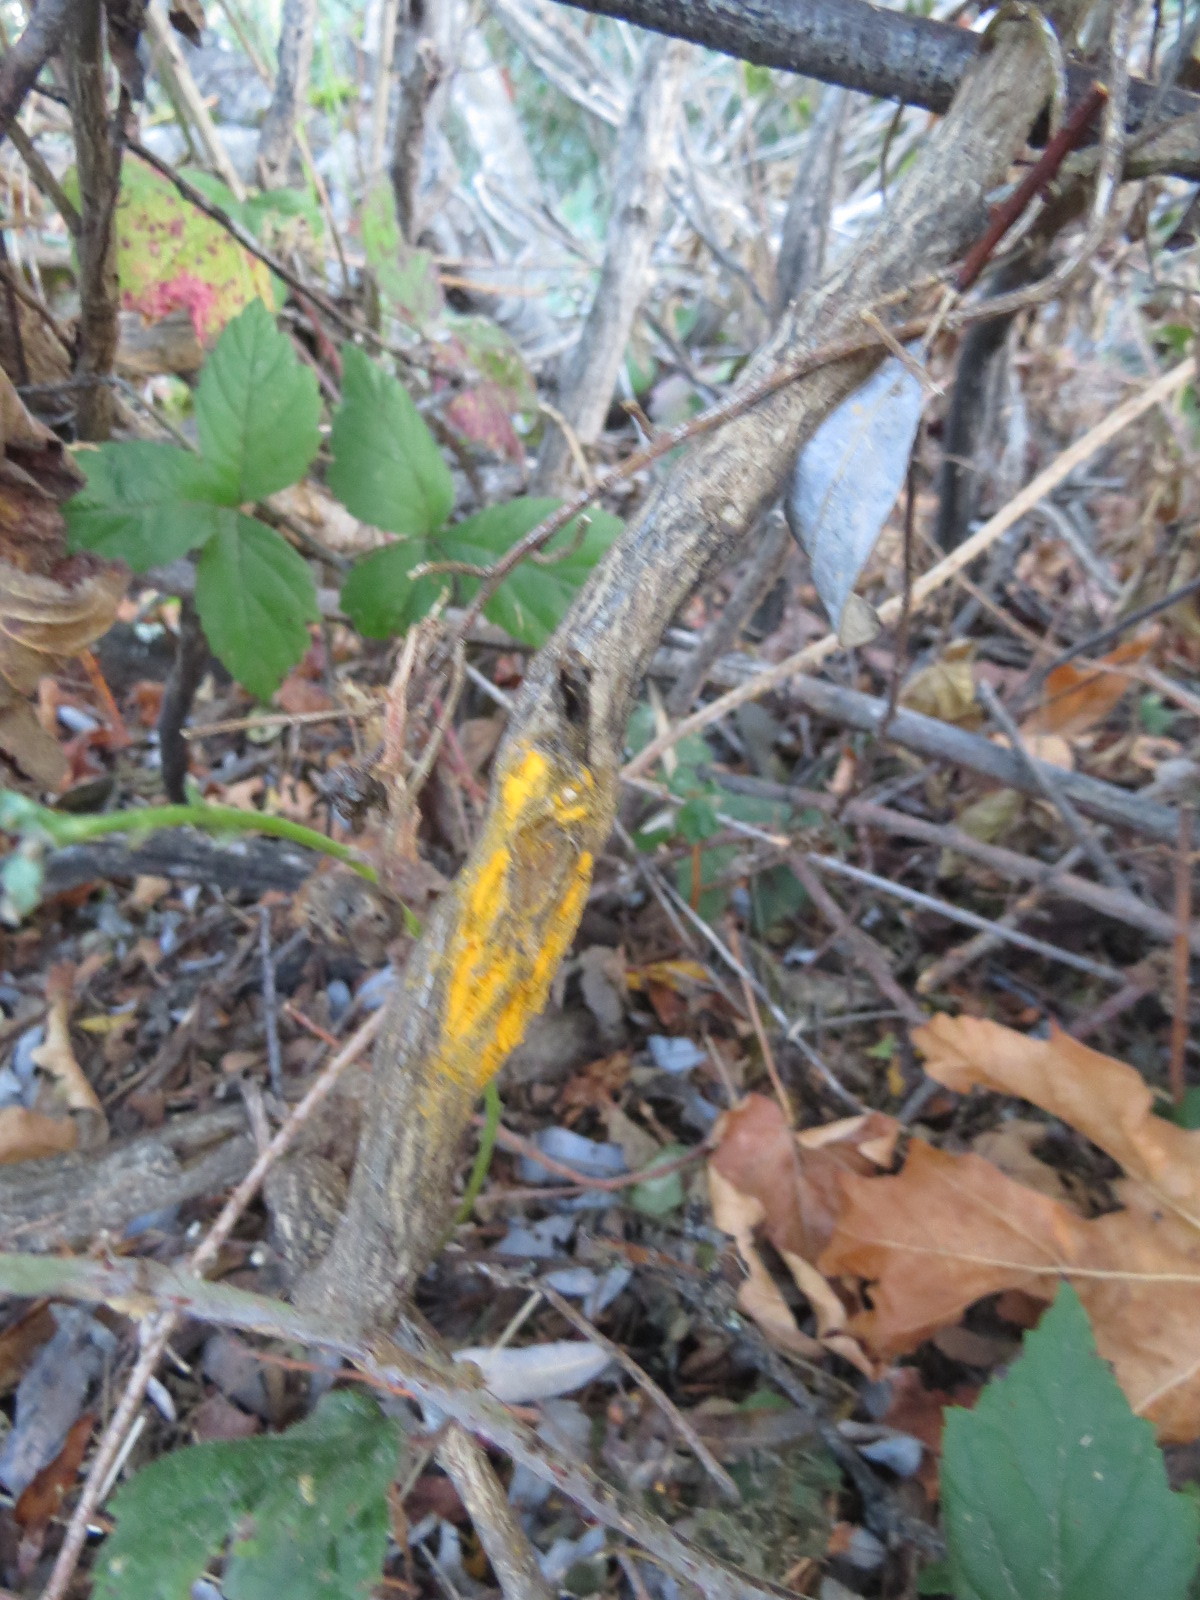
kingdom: Fungi
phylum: Basidiomycota
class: Pucciniomycetes
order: Pucciniales
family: Pucciniaceae
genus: Eriosporangium
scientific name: Eriosporangium evadens
